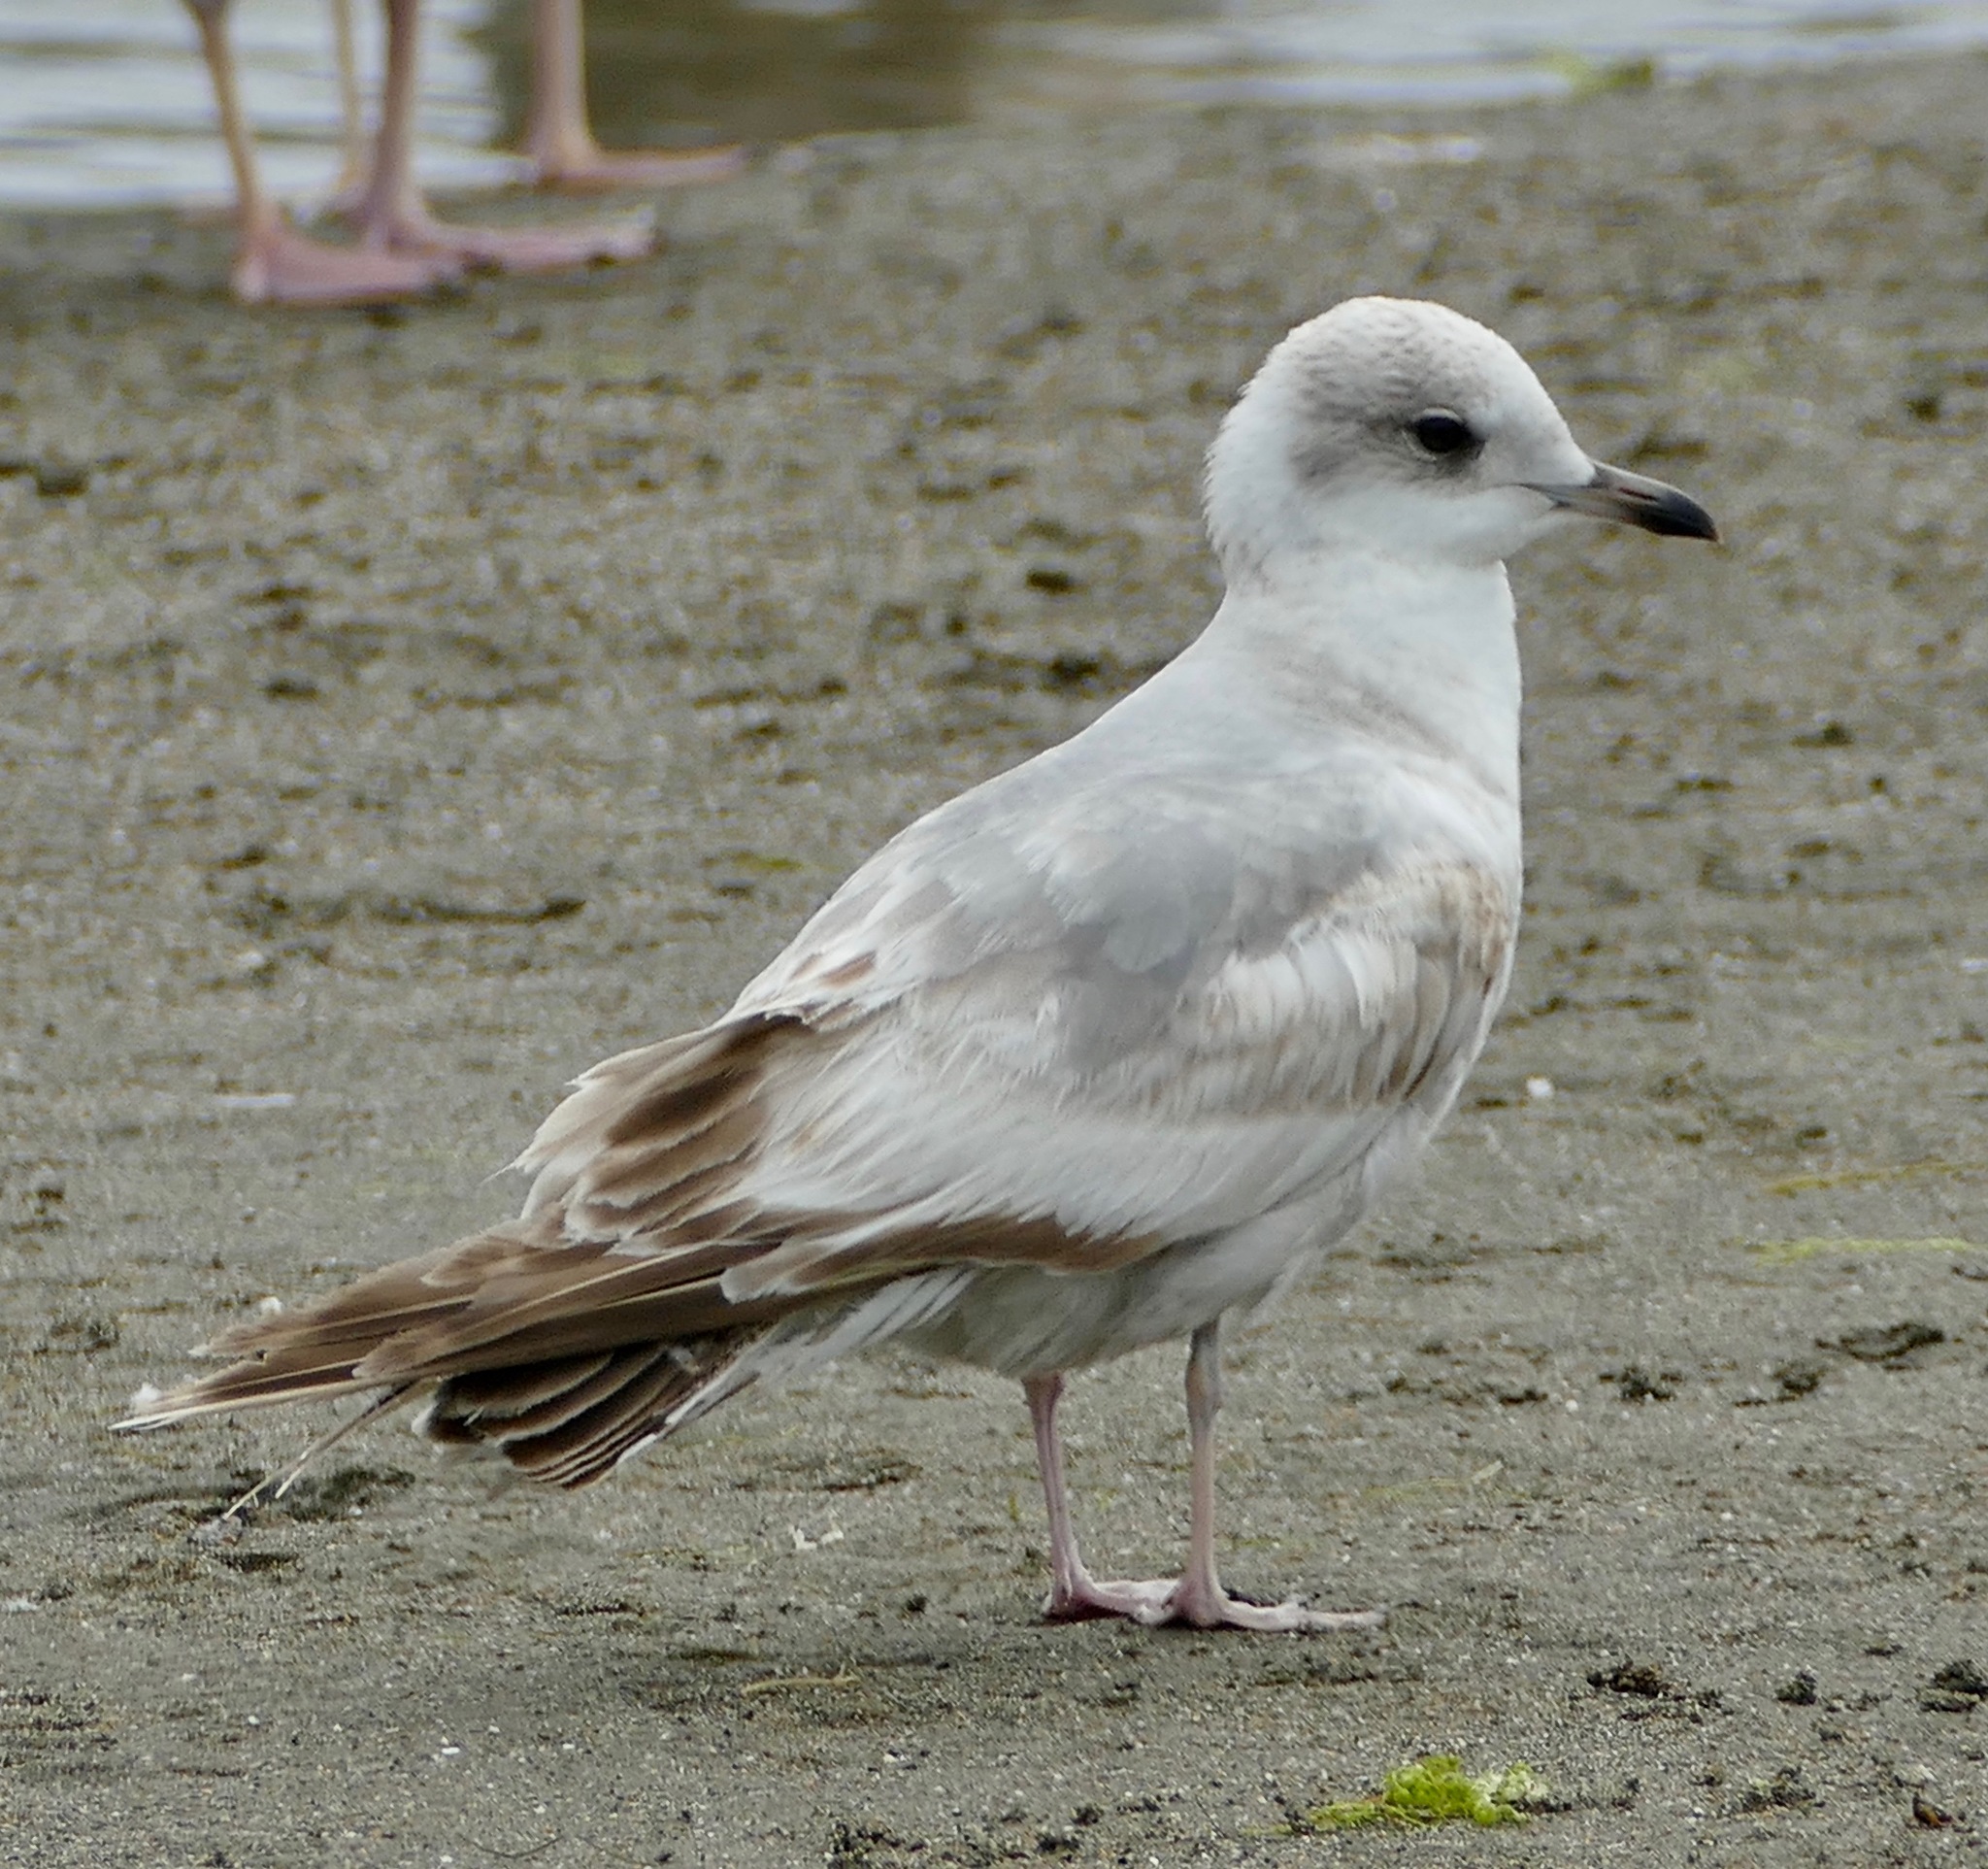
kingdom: Animalia
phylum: Chordata
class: Aves
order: Charadriiformes
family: Laridae
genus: Larus
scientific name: Larus brachyrhynchus
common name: Short-billed gull
